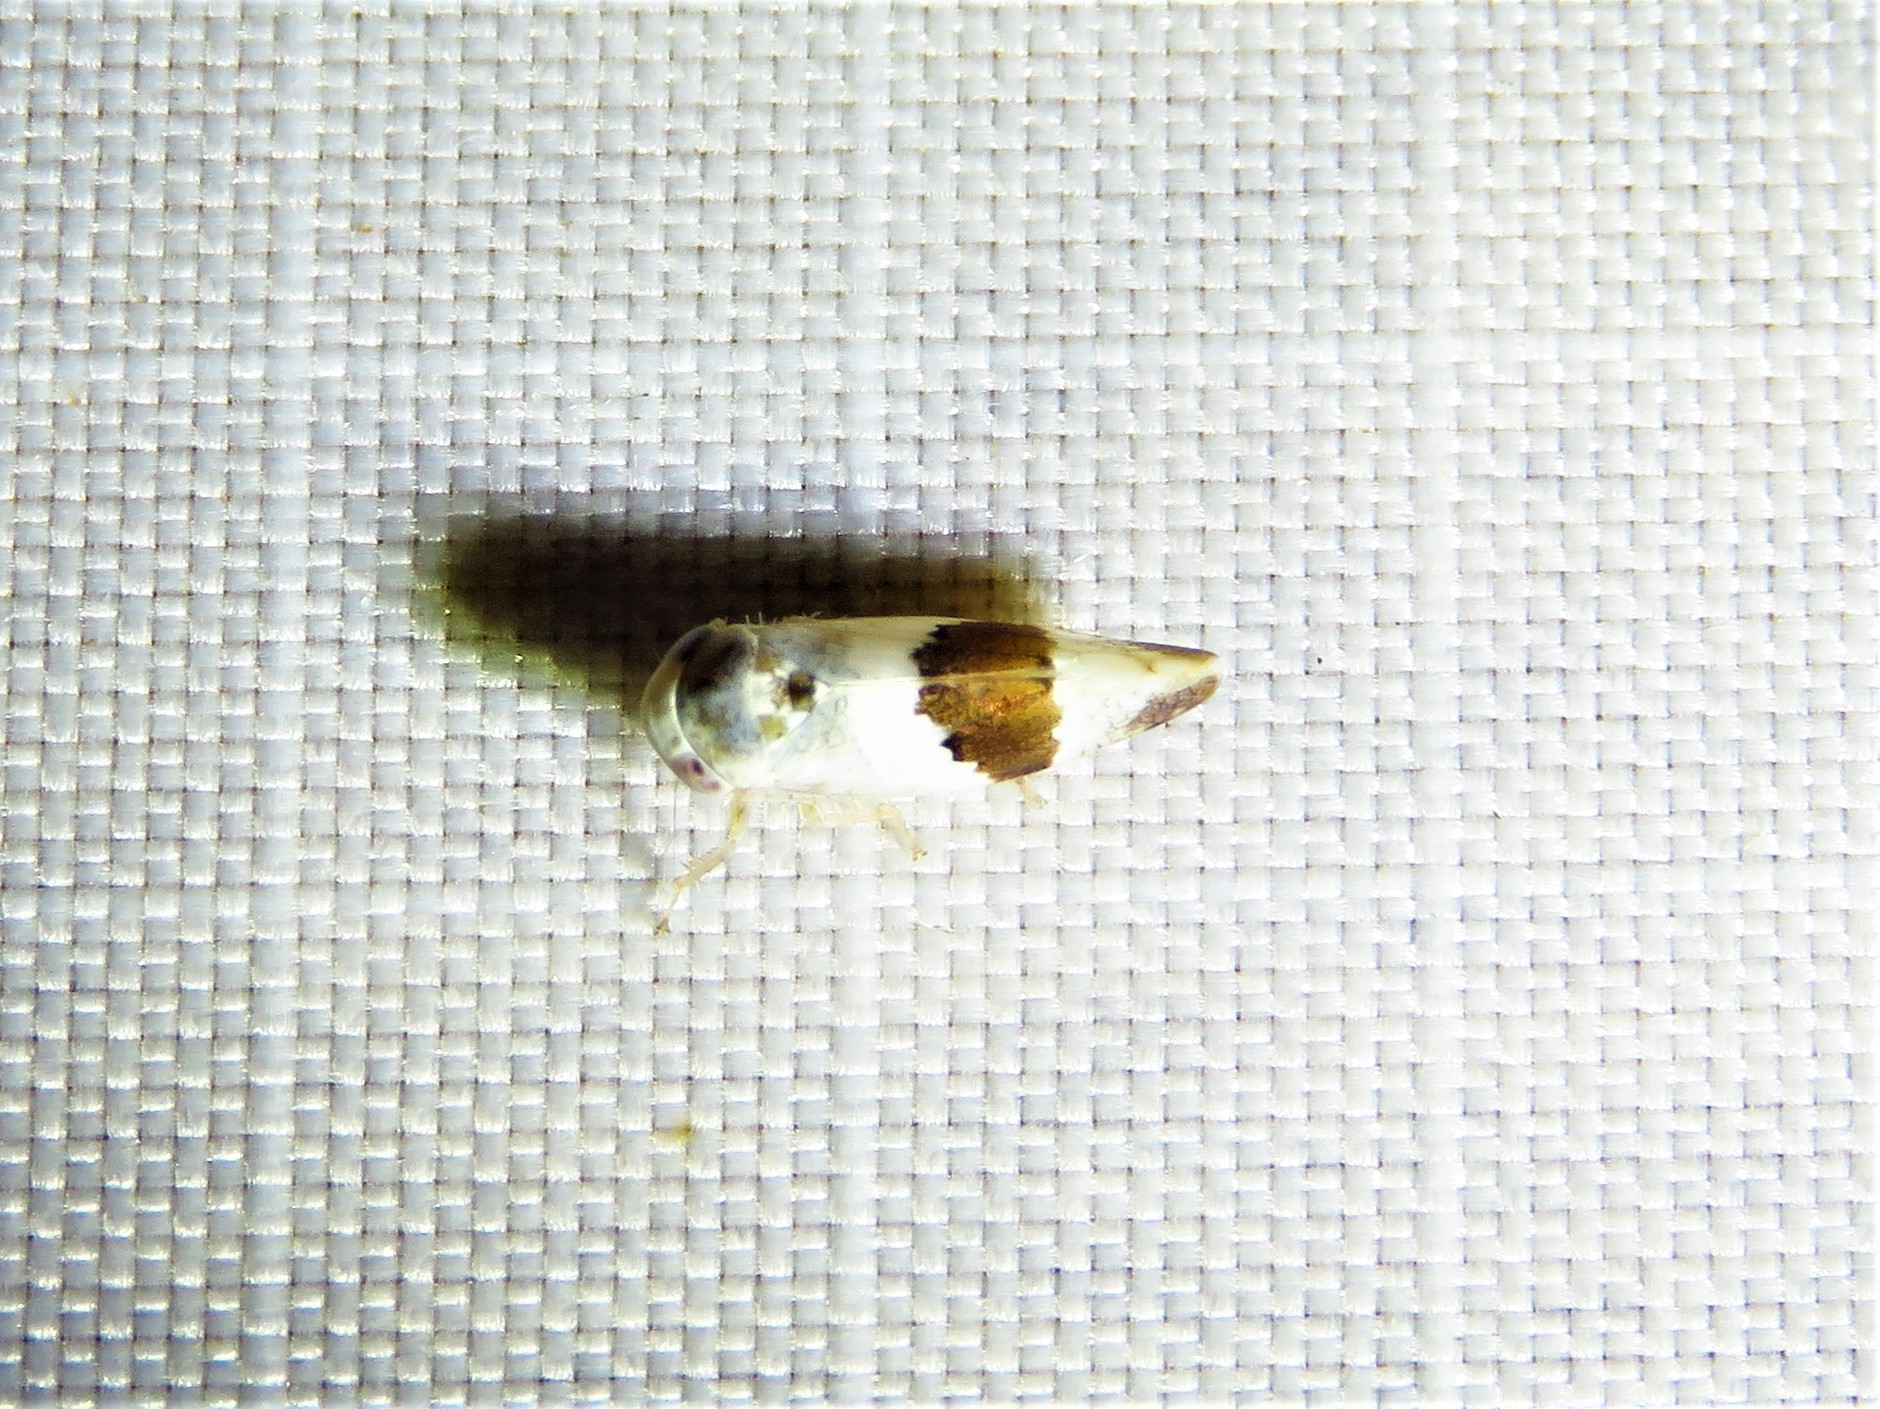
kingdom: Animalia
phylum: Arthropoda
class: Insecta
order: Hemiptera
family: Cicadellidae
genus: Norvellina
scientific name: Norvellina seminuda
